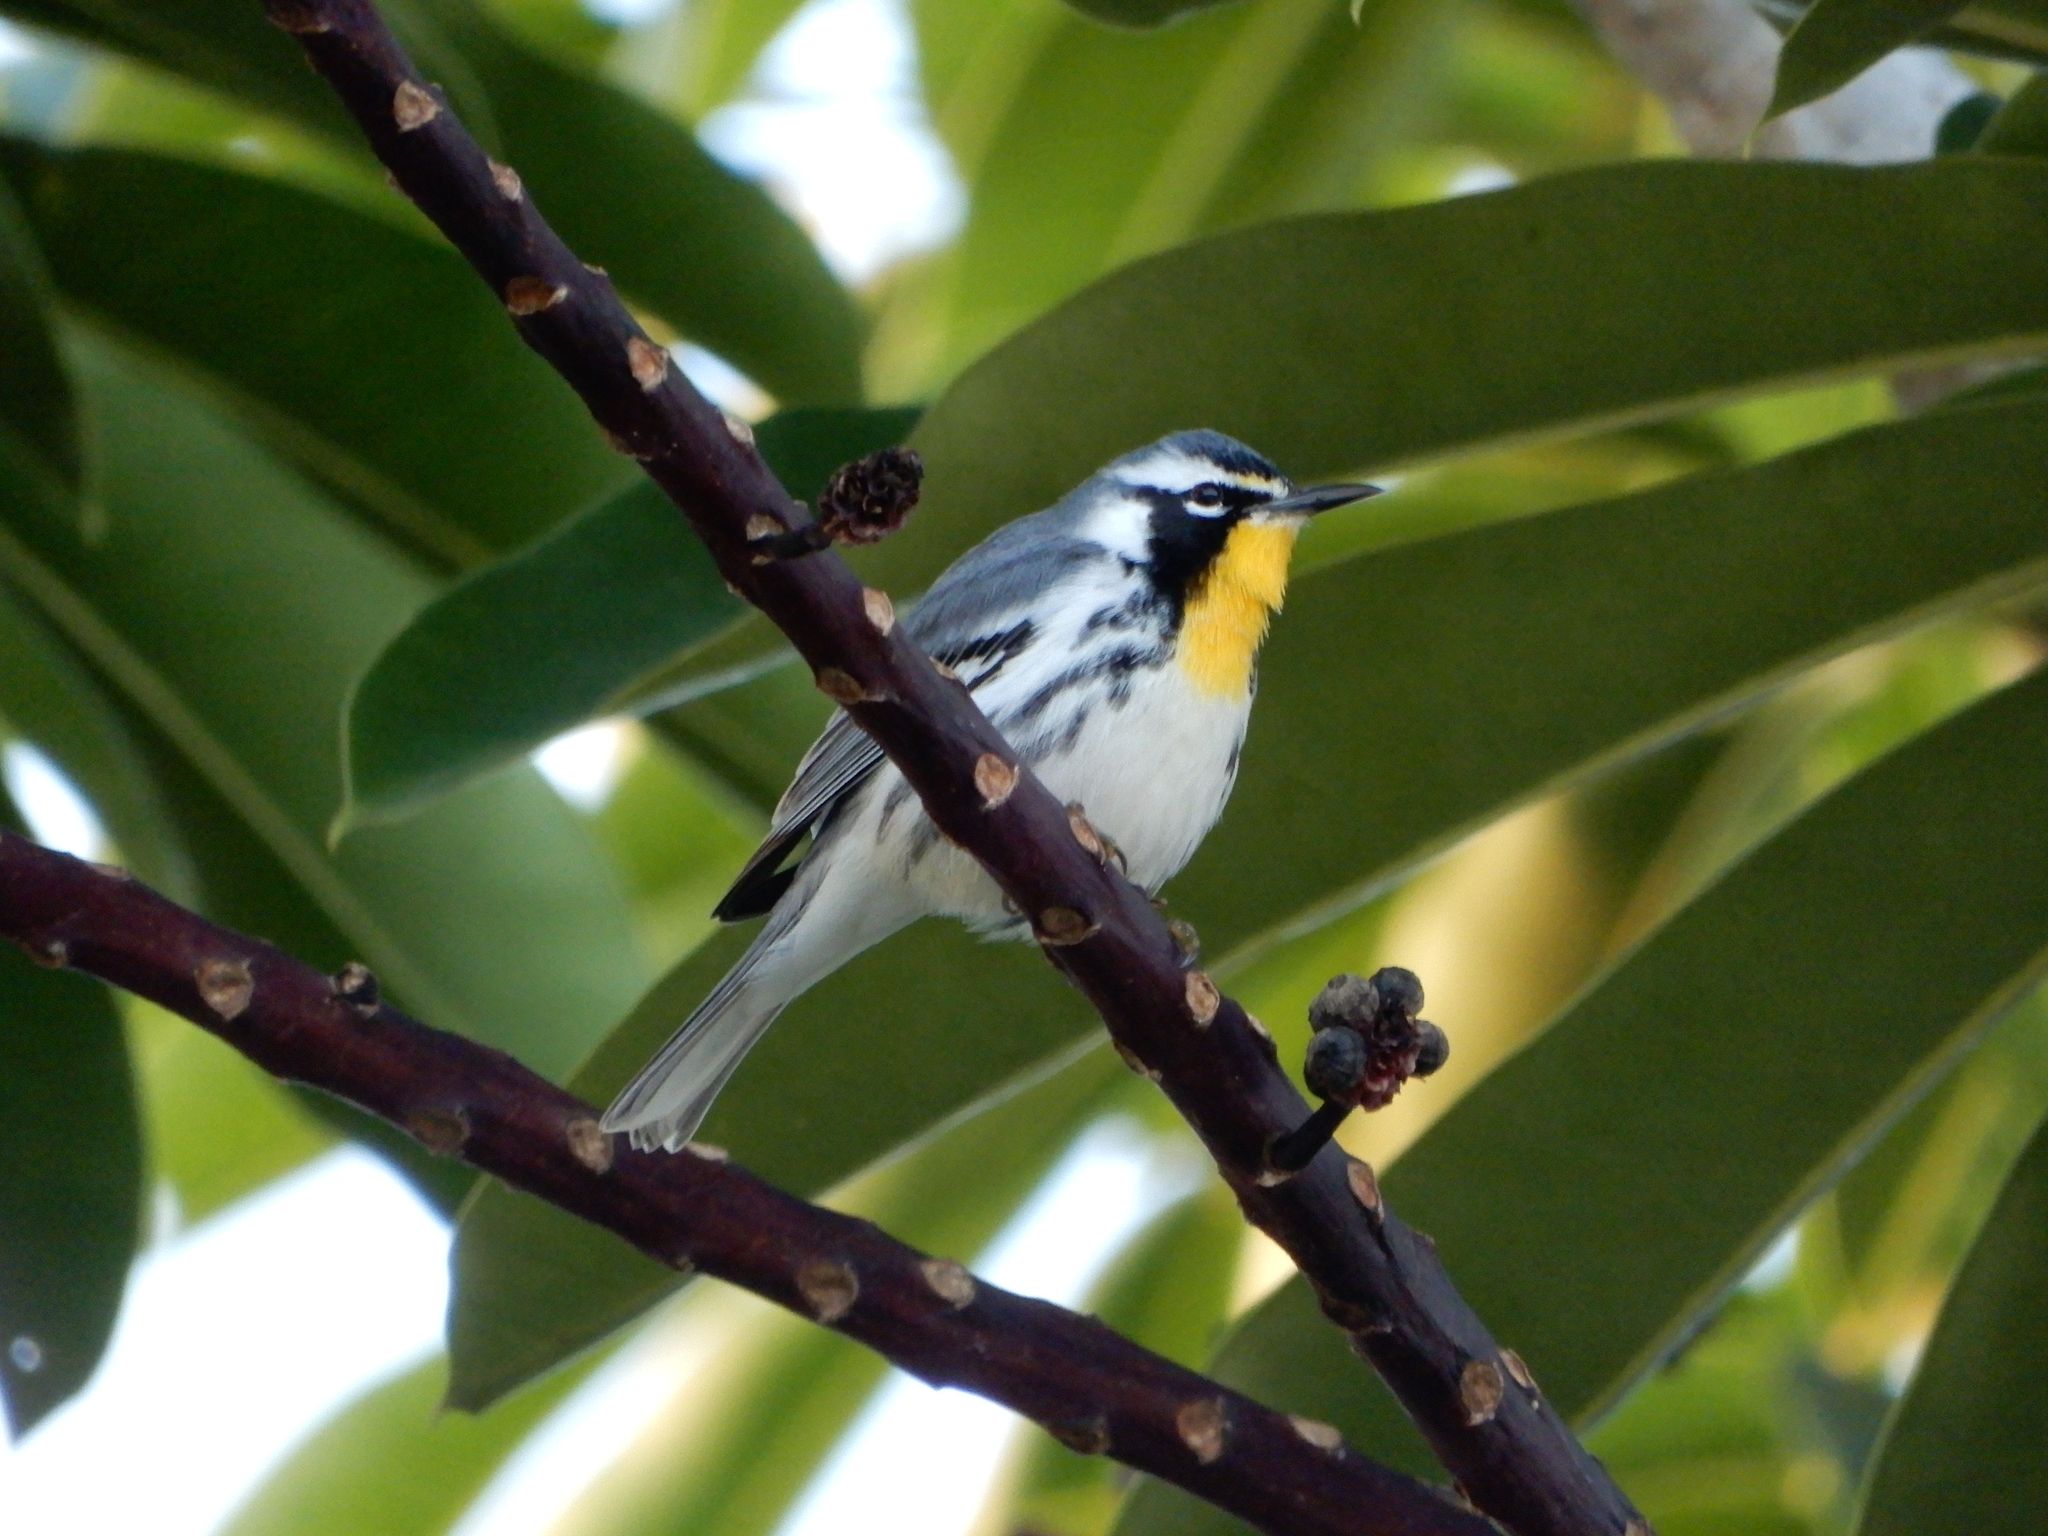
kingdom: Animalia
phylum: Chordata
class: Aves
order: Passeriformes
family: Parulidae
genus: Setophaga
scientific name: Setophaga dominica
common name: Yellow-throated warbler
